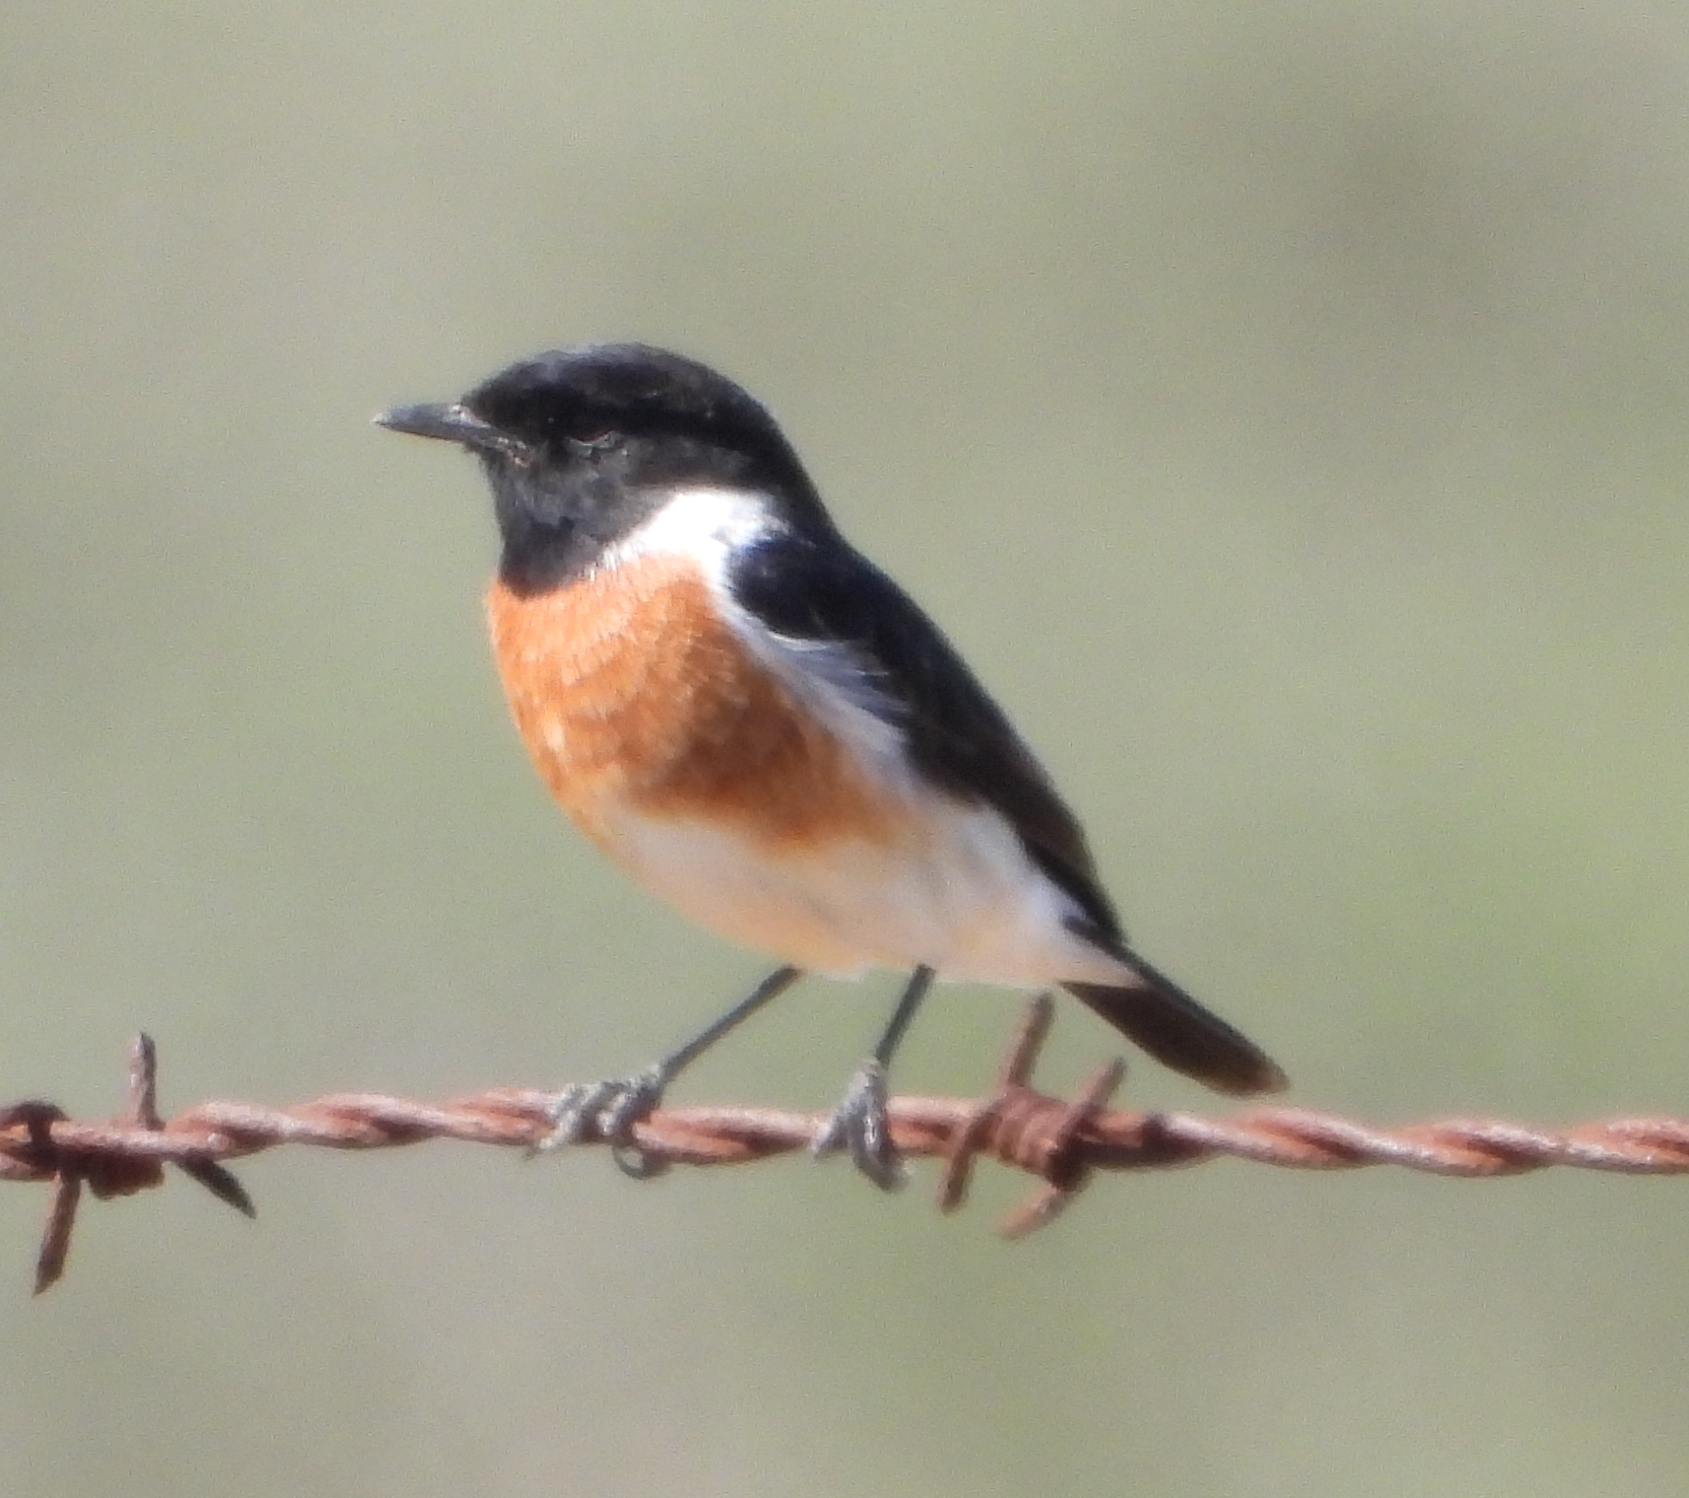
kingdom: Animalia
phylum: Chordata
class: Aves
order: Passeriformes
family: Muscicapidae
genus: Saxicola
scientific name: Saxicola torquatus
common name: African stonechat
